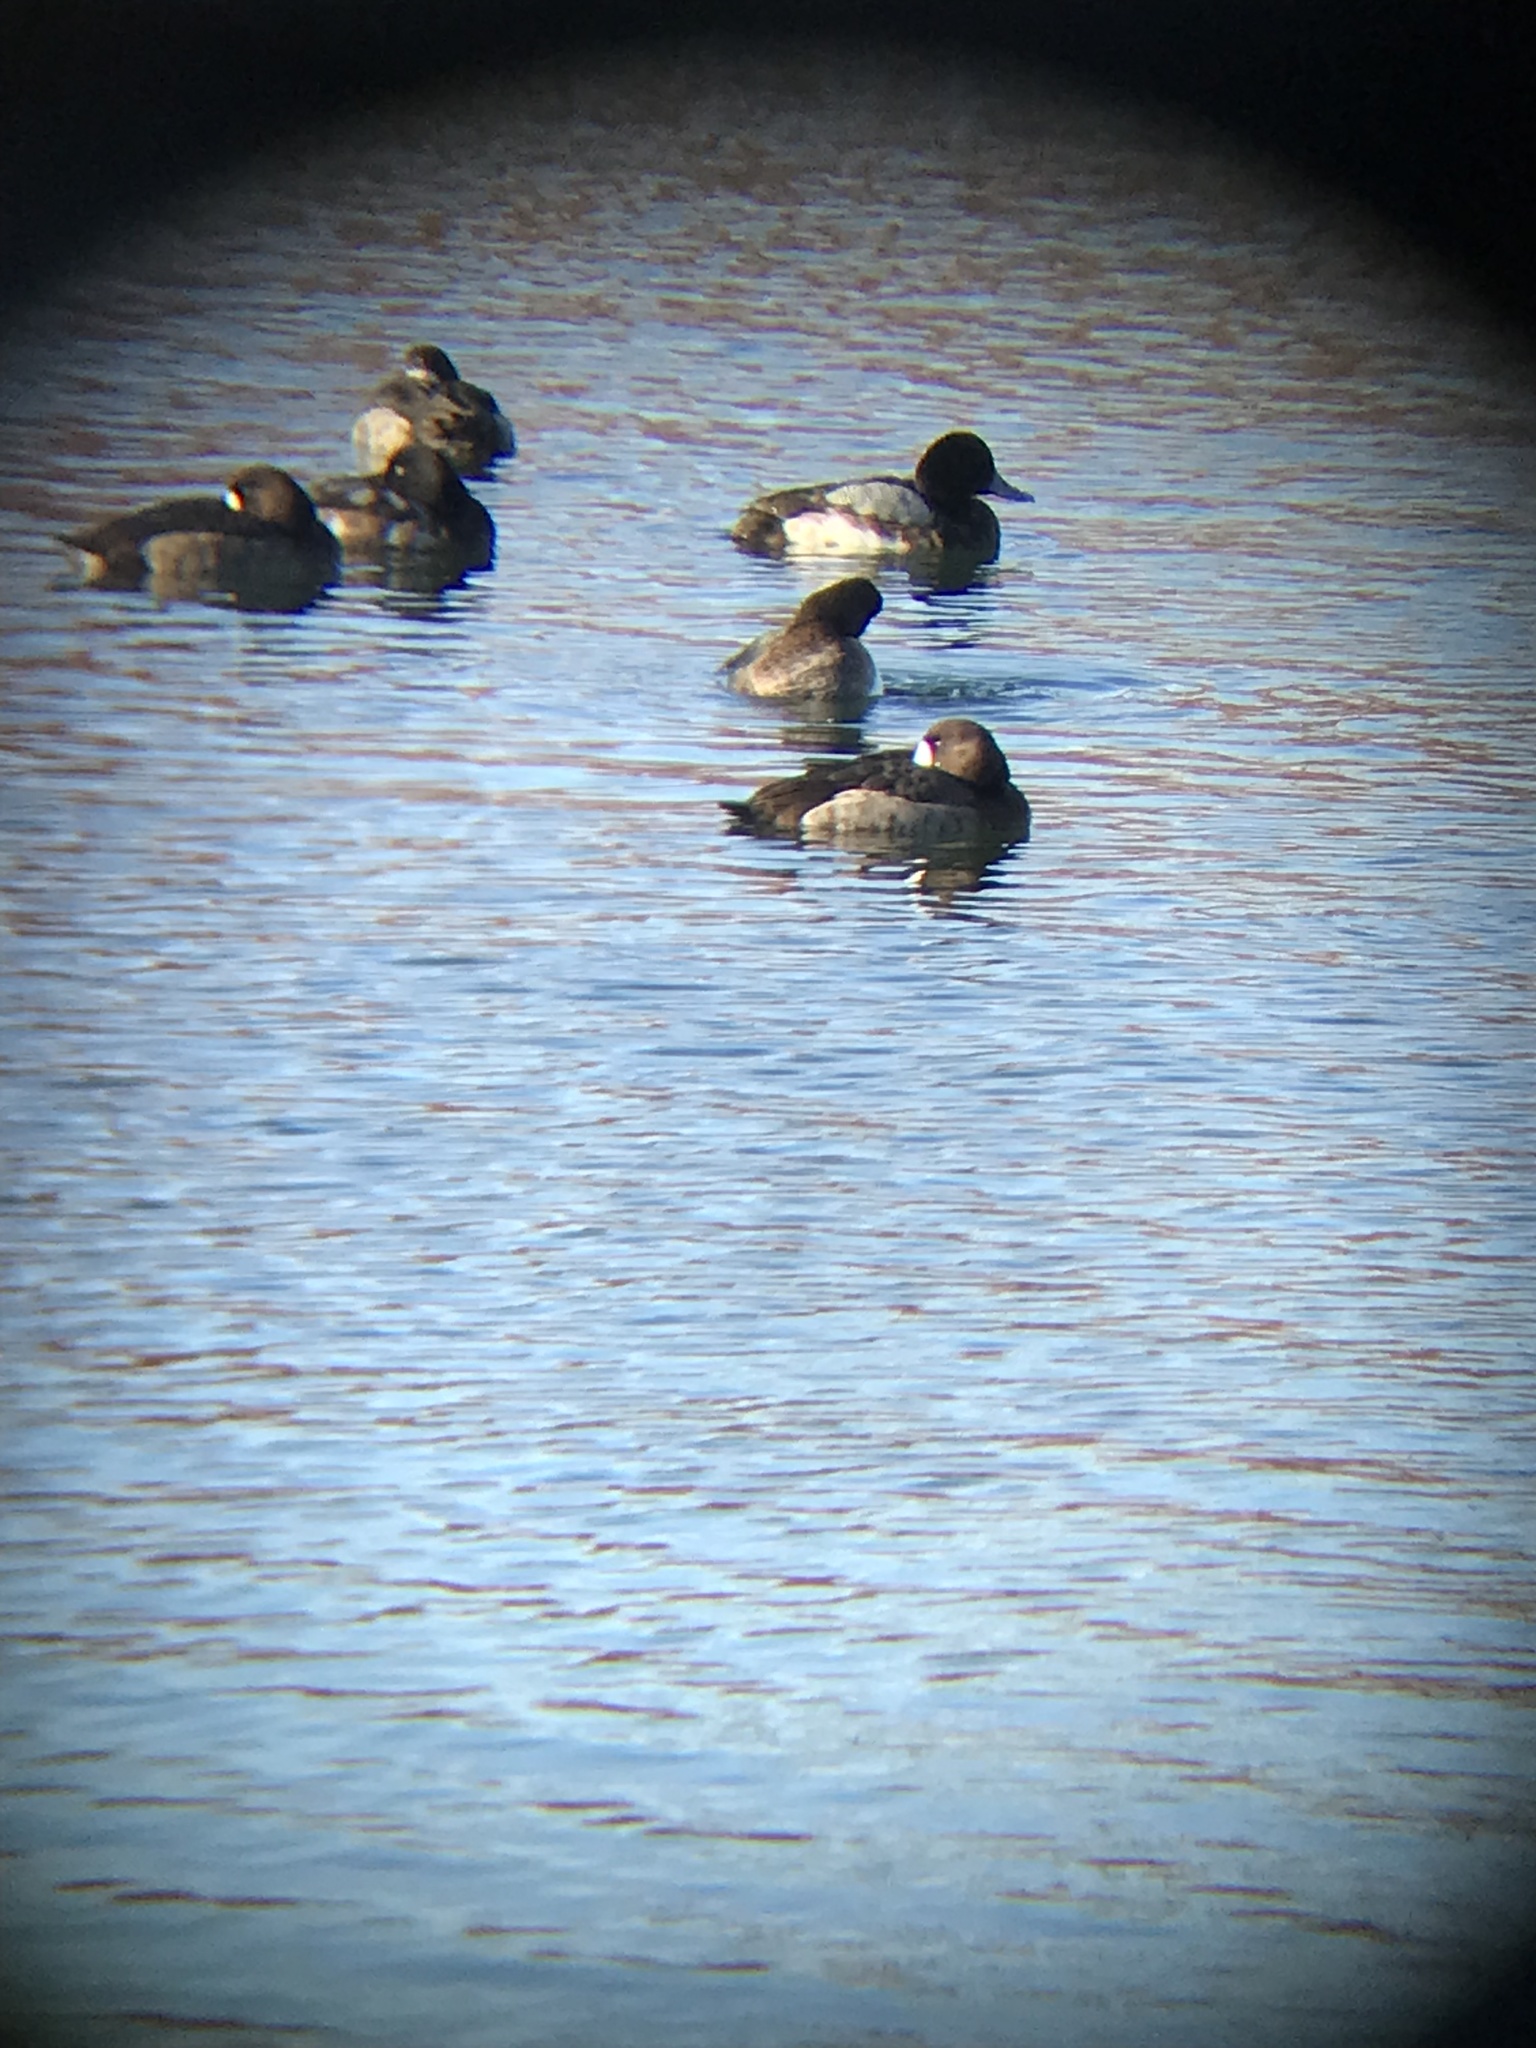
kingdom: Animalia
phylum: Chordata
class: Aves
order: Anseriformes
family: Anatidae
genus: Aythya
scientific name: Aythya marila
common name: Greater scaup
